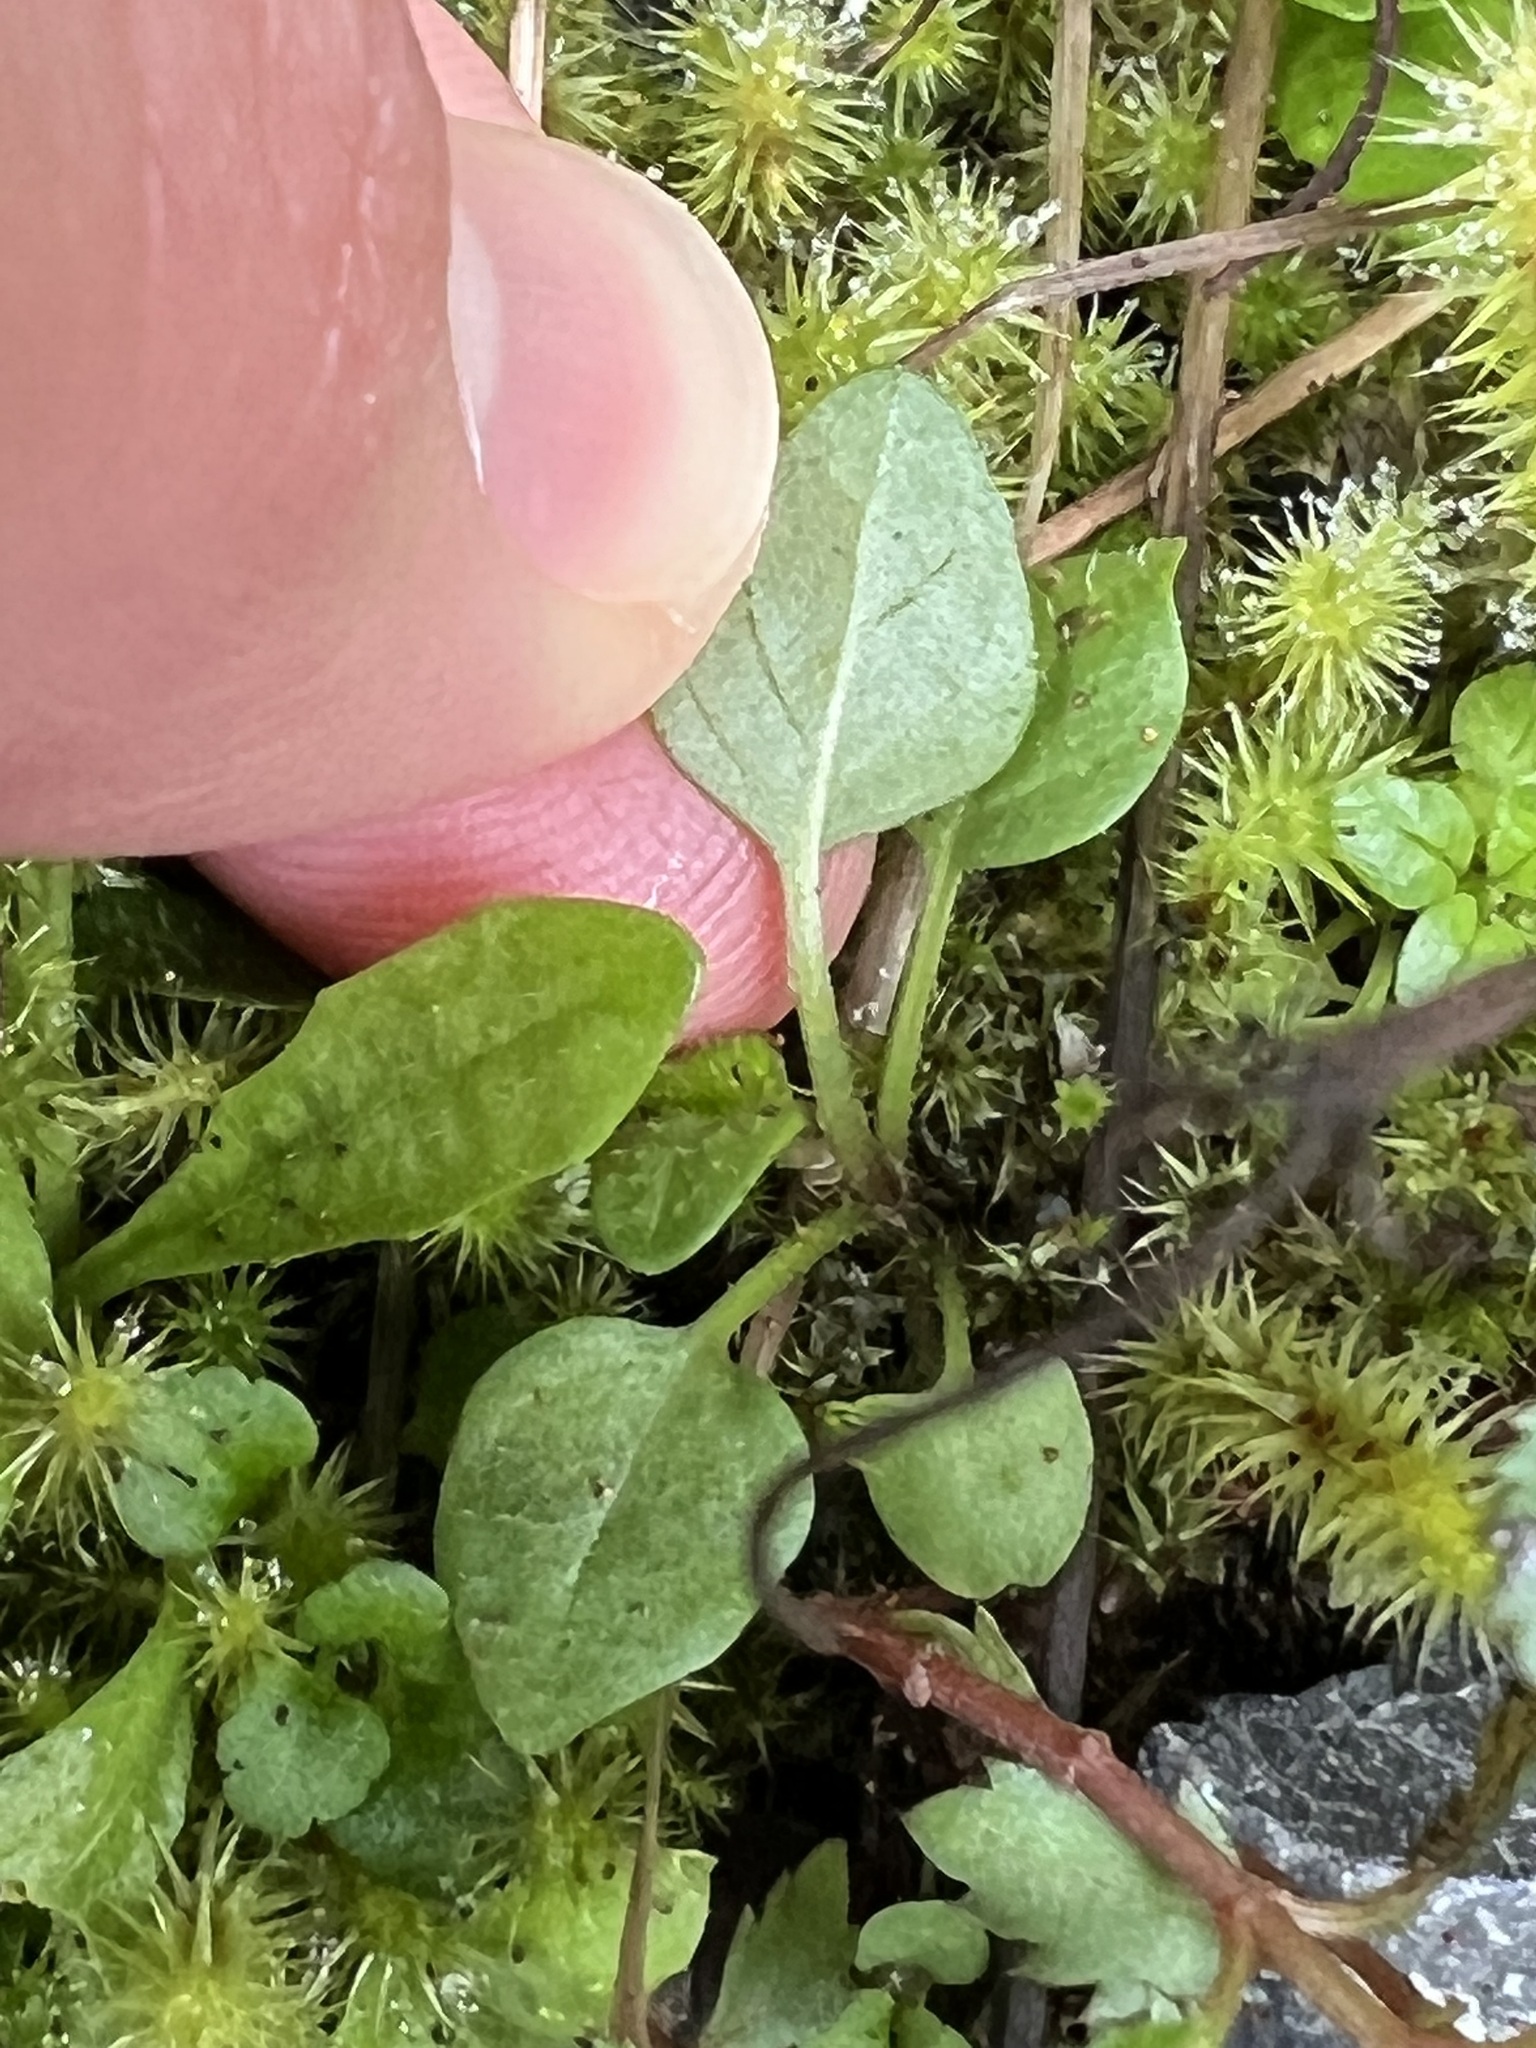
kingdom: Plantae
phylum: Tracheophyta
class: Magnoliopsida
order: Lamiales
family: Lamiaceae
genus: Prunella
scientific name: Prunella vulgaris
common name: Heal-all
